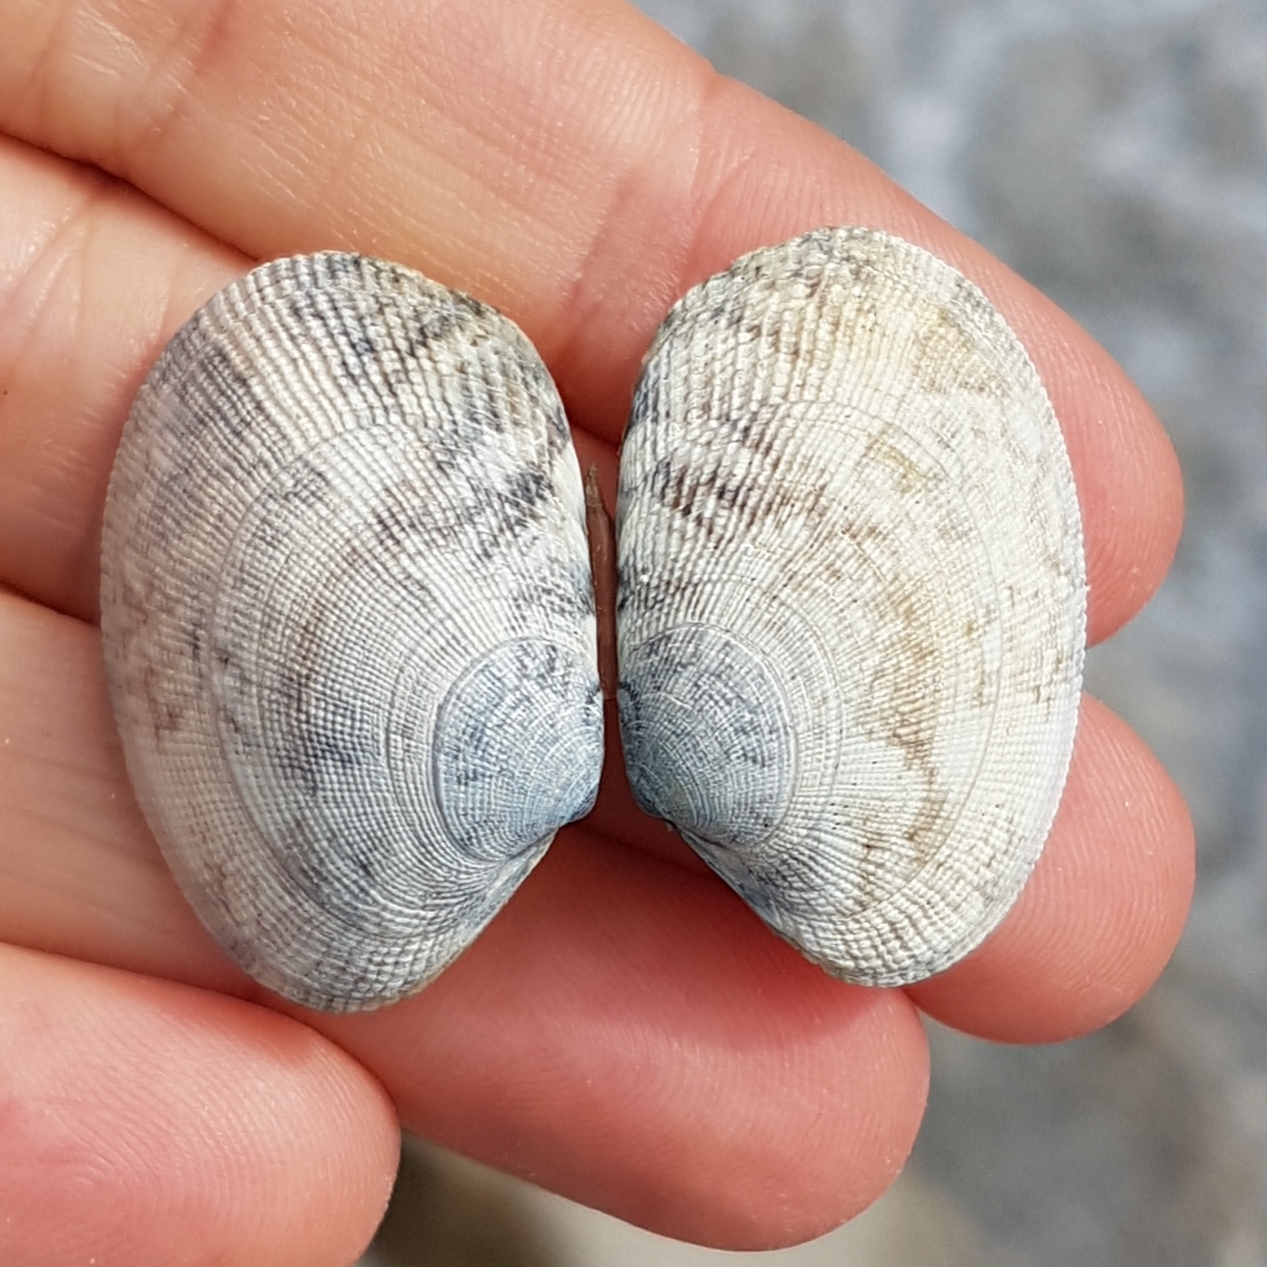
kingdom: Animalia
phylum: Mollusca
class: Bivalvia
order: Venerida
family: Veneridae
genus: Ruditapes
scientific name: Ruditapes decussatus
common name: Chequered carpet shell
